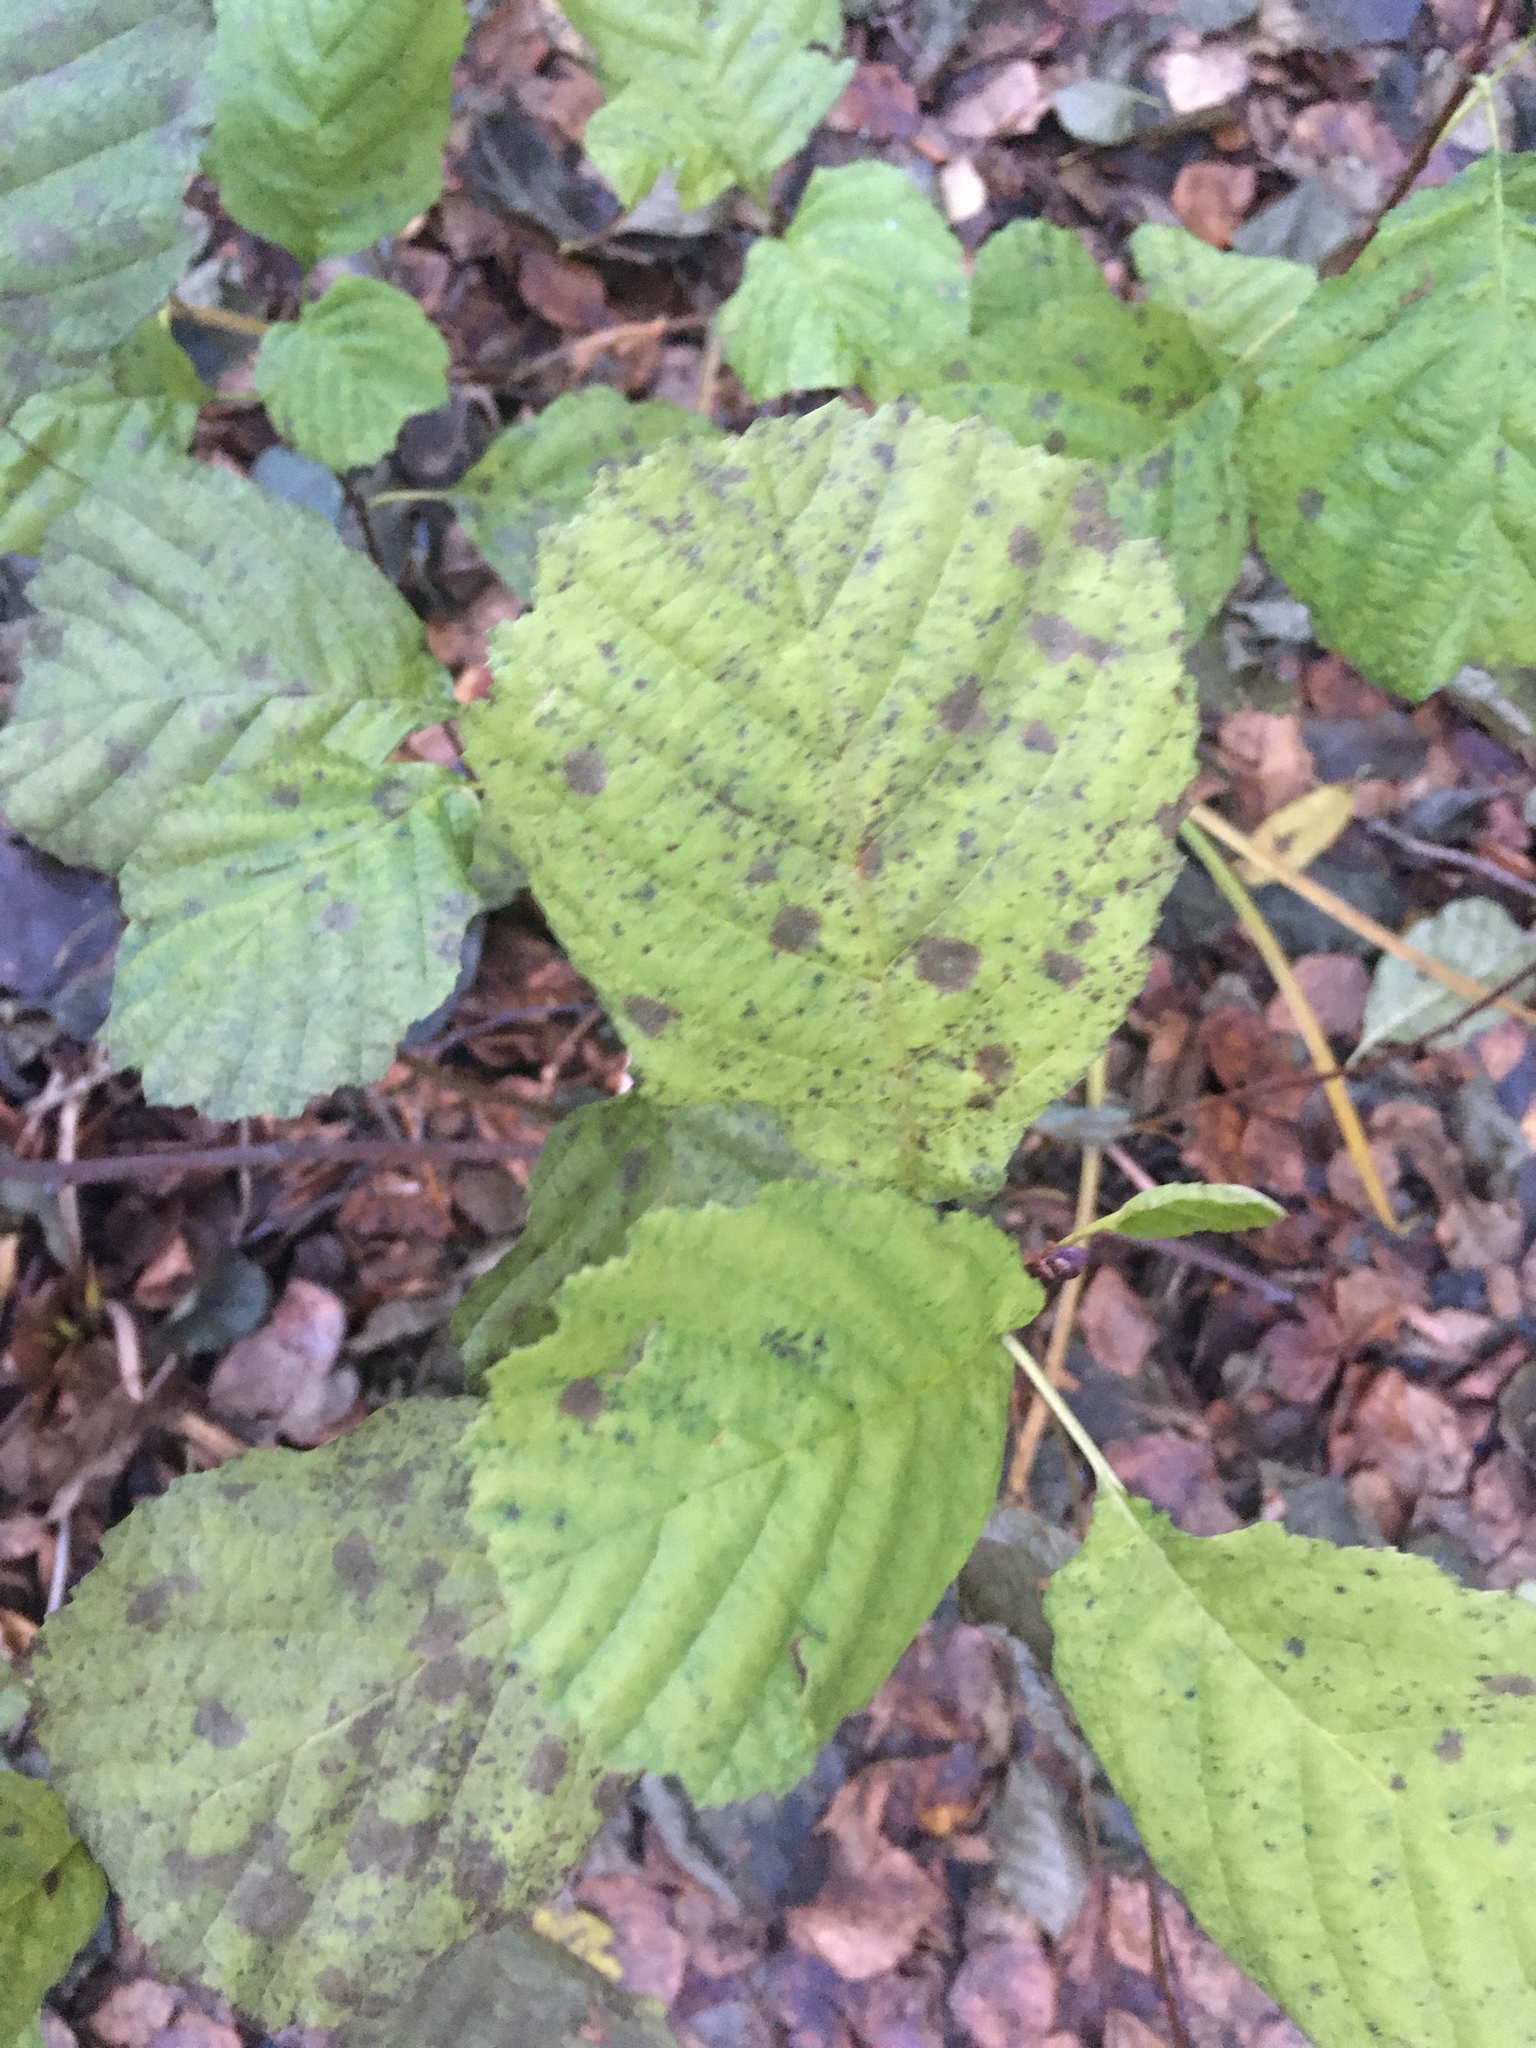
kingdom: Plantae
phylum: Tracheophyta
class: Magnoliopsida
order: Fagales
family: Betulaceae
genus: Alnus
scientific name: Alnus glutinosa
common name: Black alder
